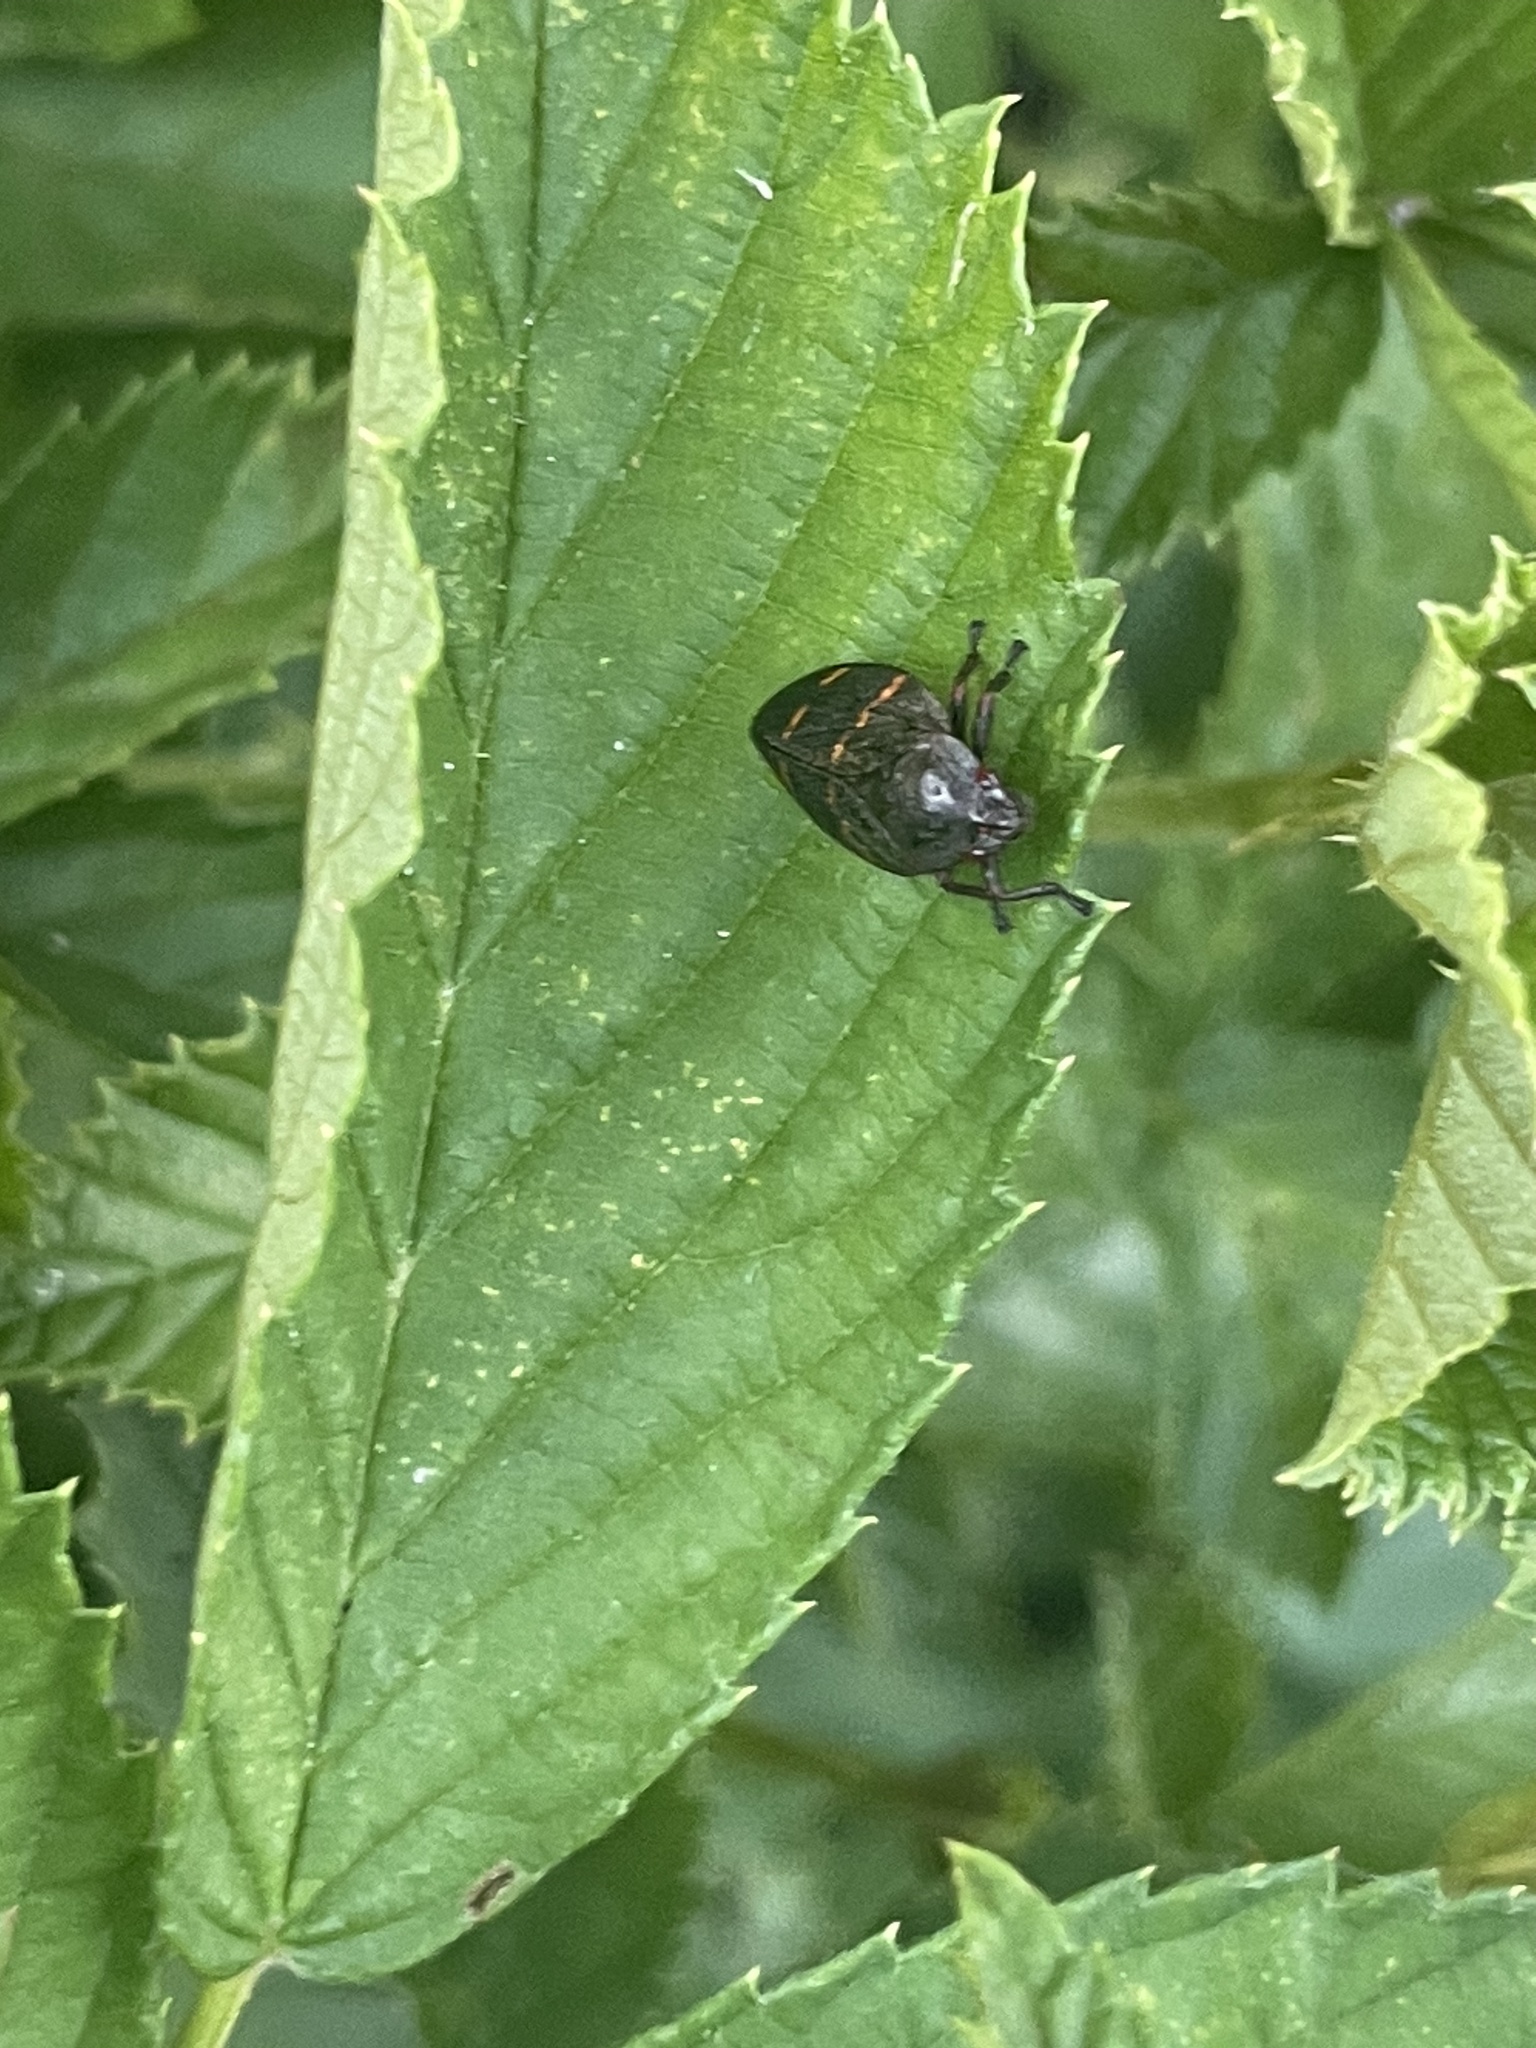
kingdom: Animalia
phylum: Arthropoda
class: Insecta
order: Hemiptera
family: Cercopidae
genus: Prosapia
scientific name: Prosapia bicincta
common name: Twolined spittlebug
